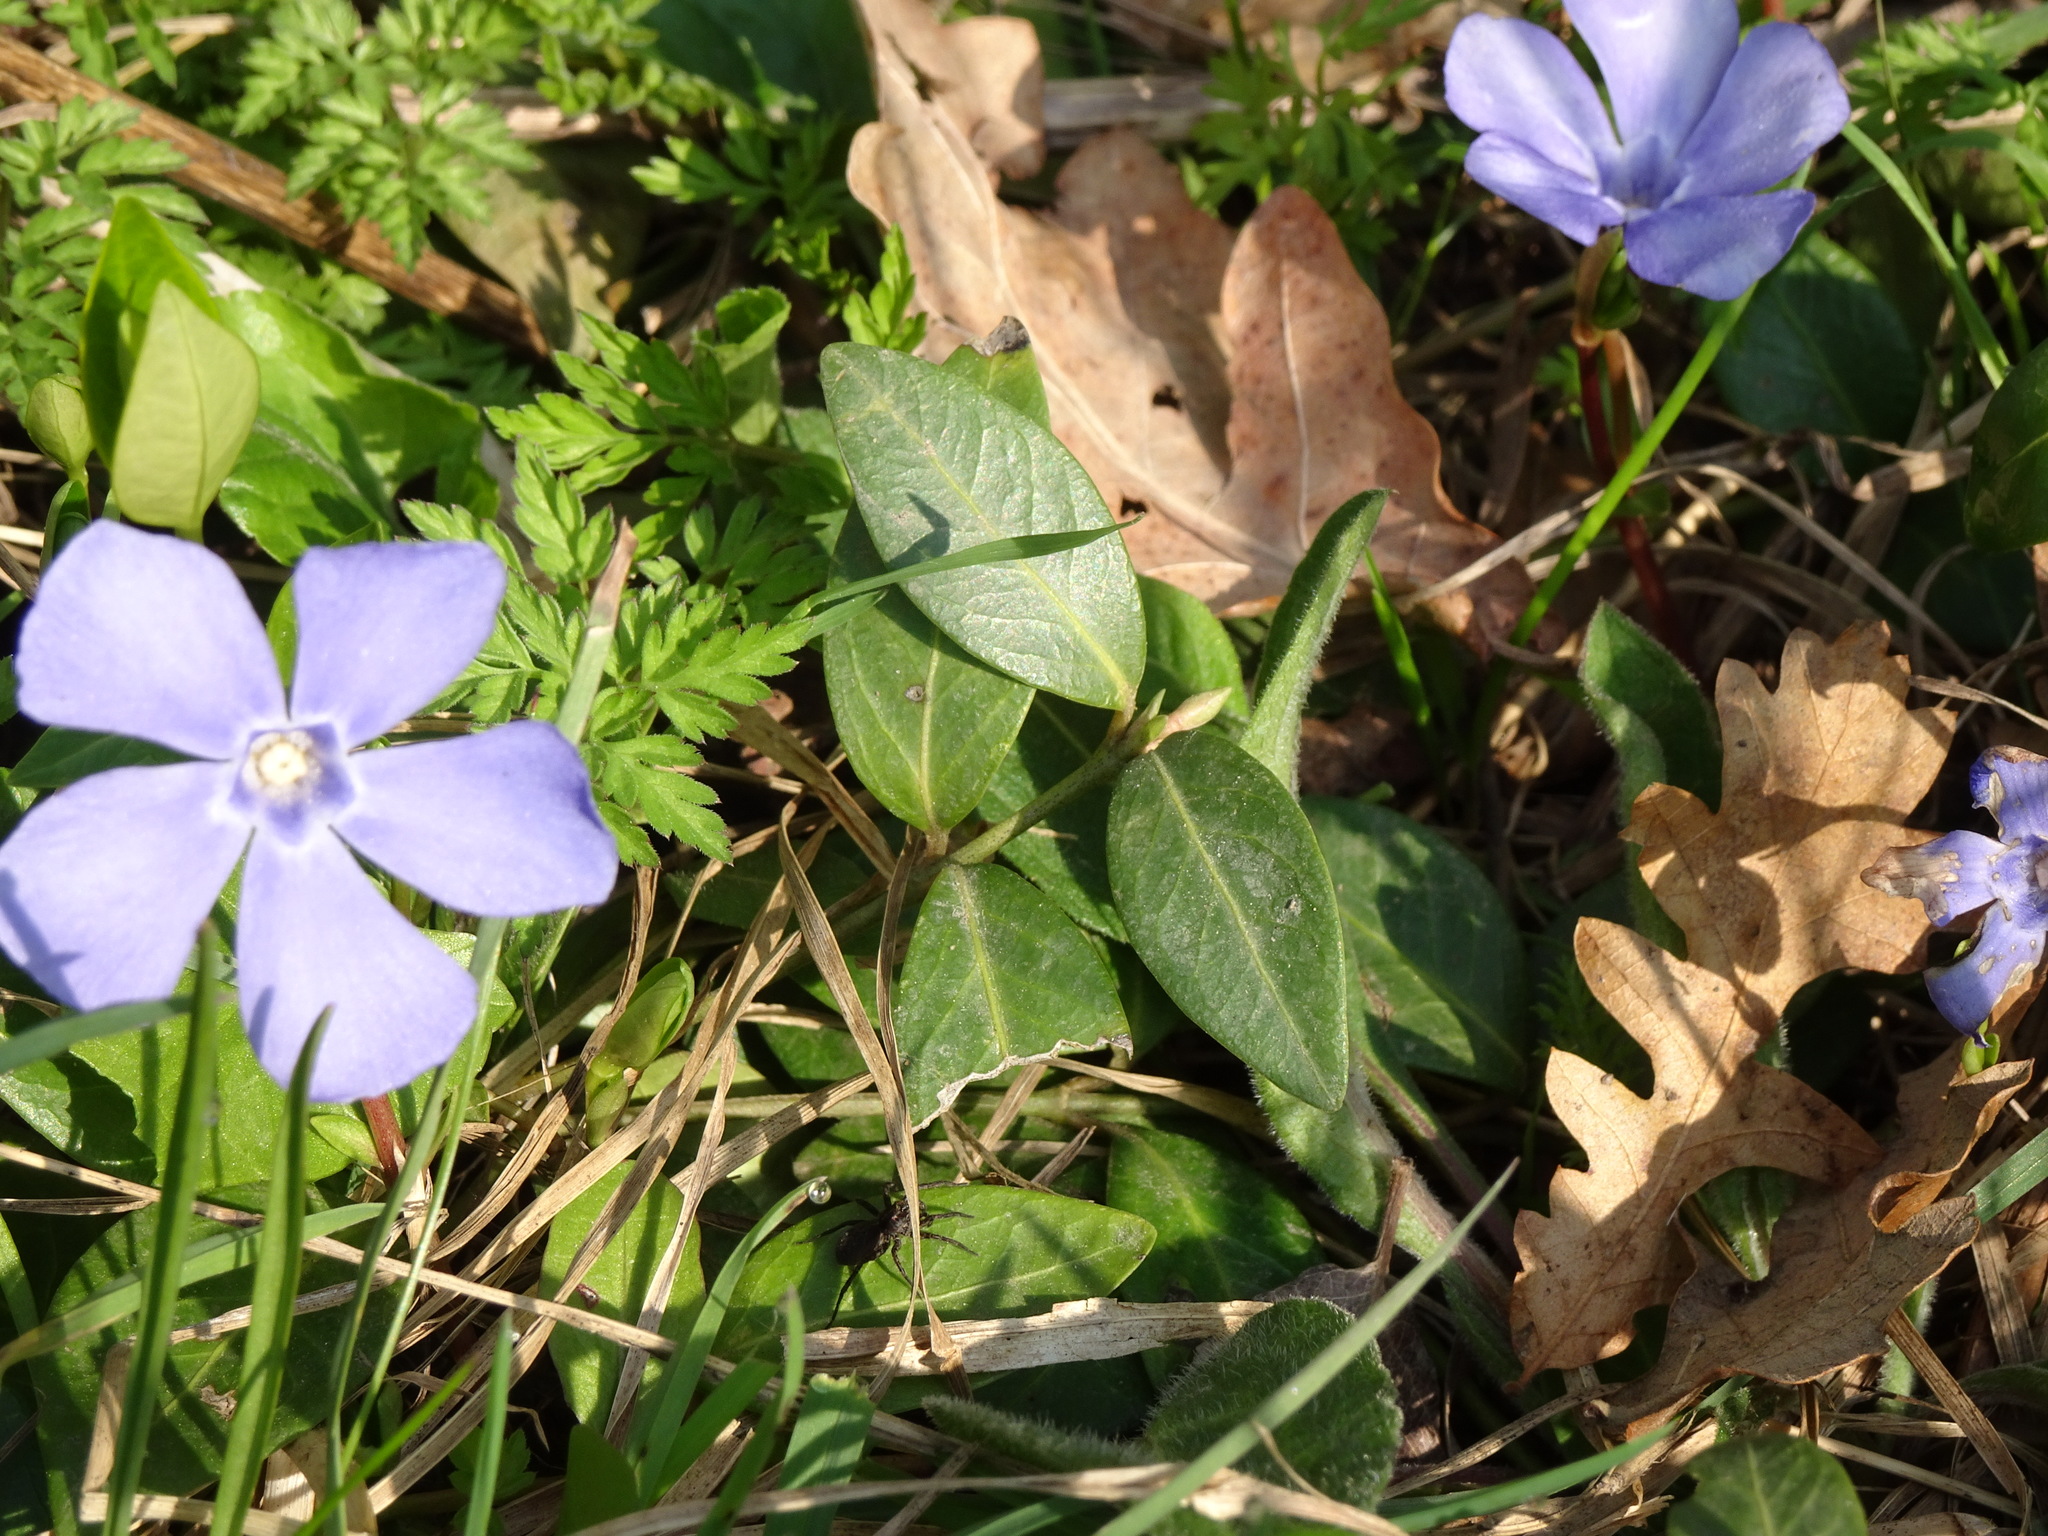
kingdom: Plantae
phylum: Tracheophyta
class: Magnoliopsida
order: Gentianales
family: Apocynaceae
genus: Vinca
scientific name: Vinca minor
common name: Lesser periwinkle
